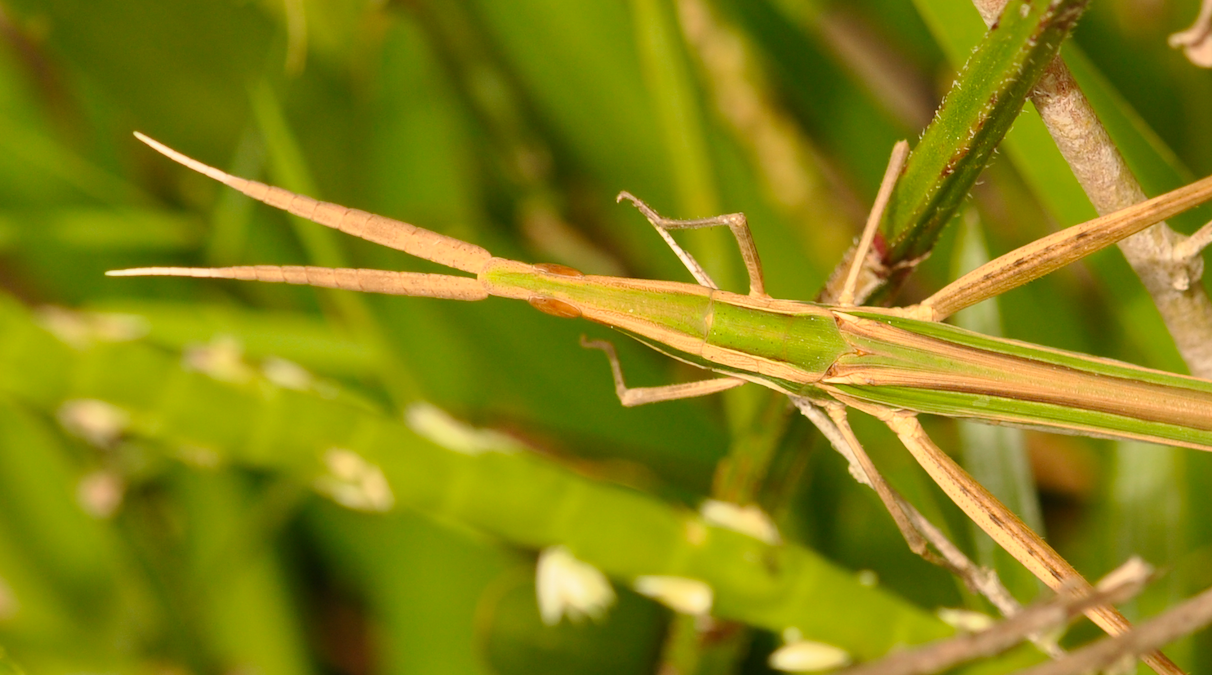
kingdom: Animalia
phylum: Arthropoda
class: Insecta
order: Orthoptera
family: Acrididae
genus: Chromacrida
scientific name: Chromacrida brunneriana
